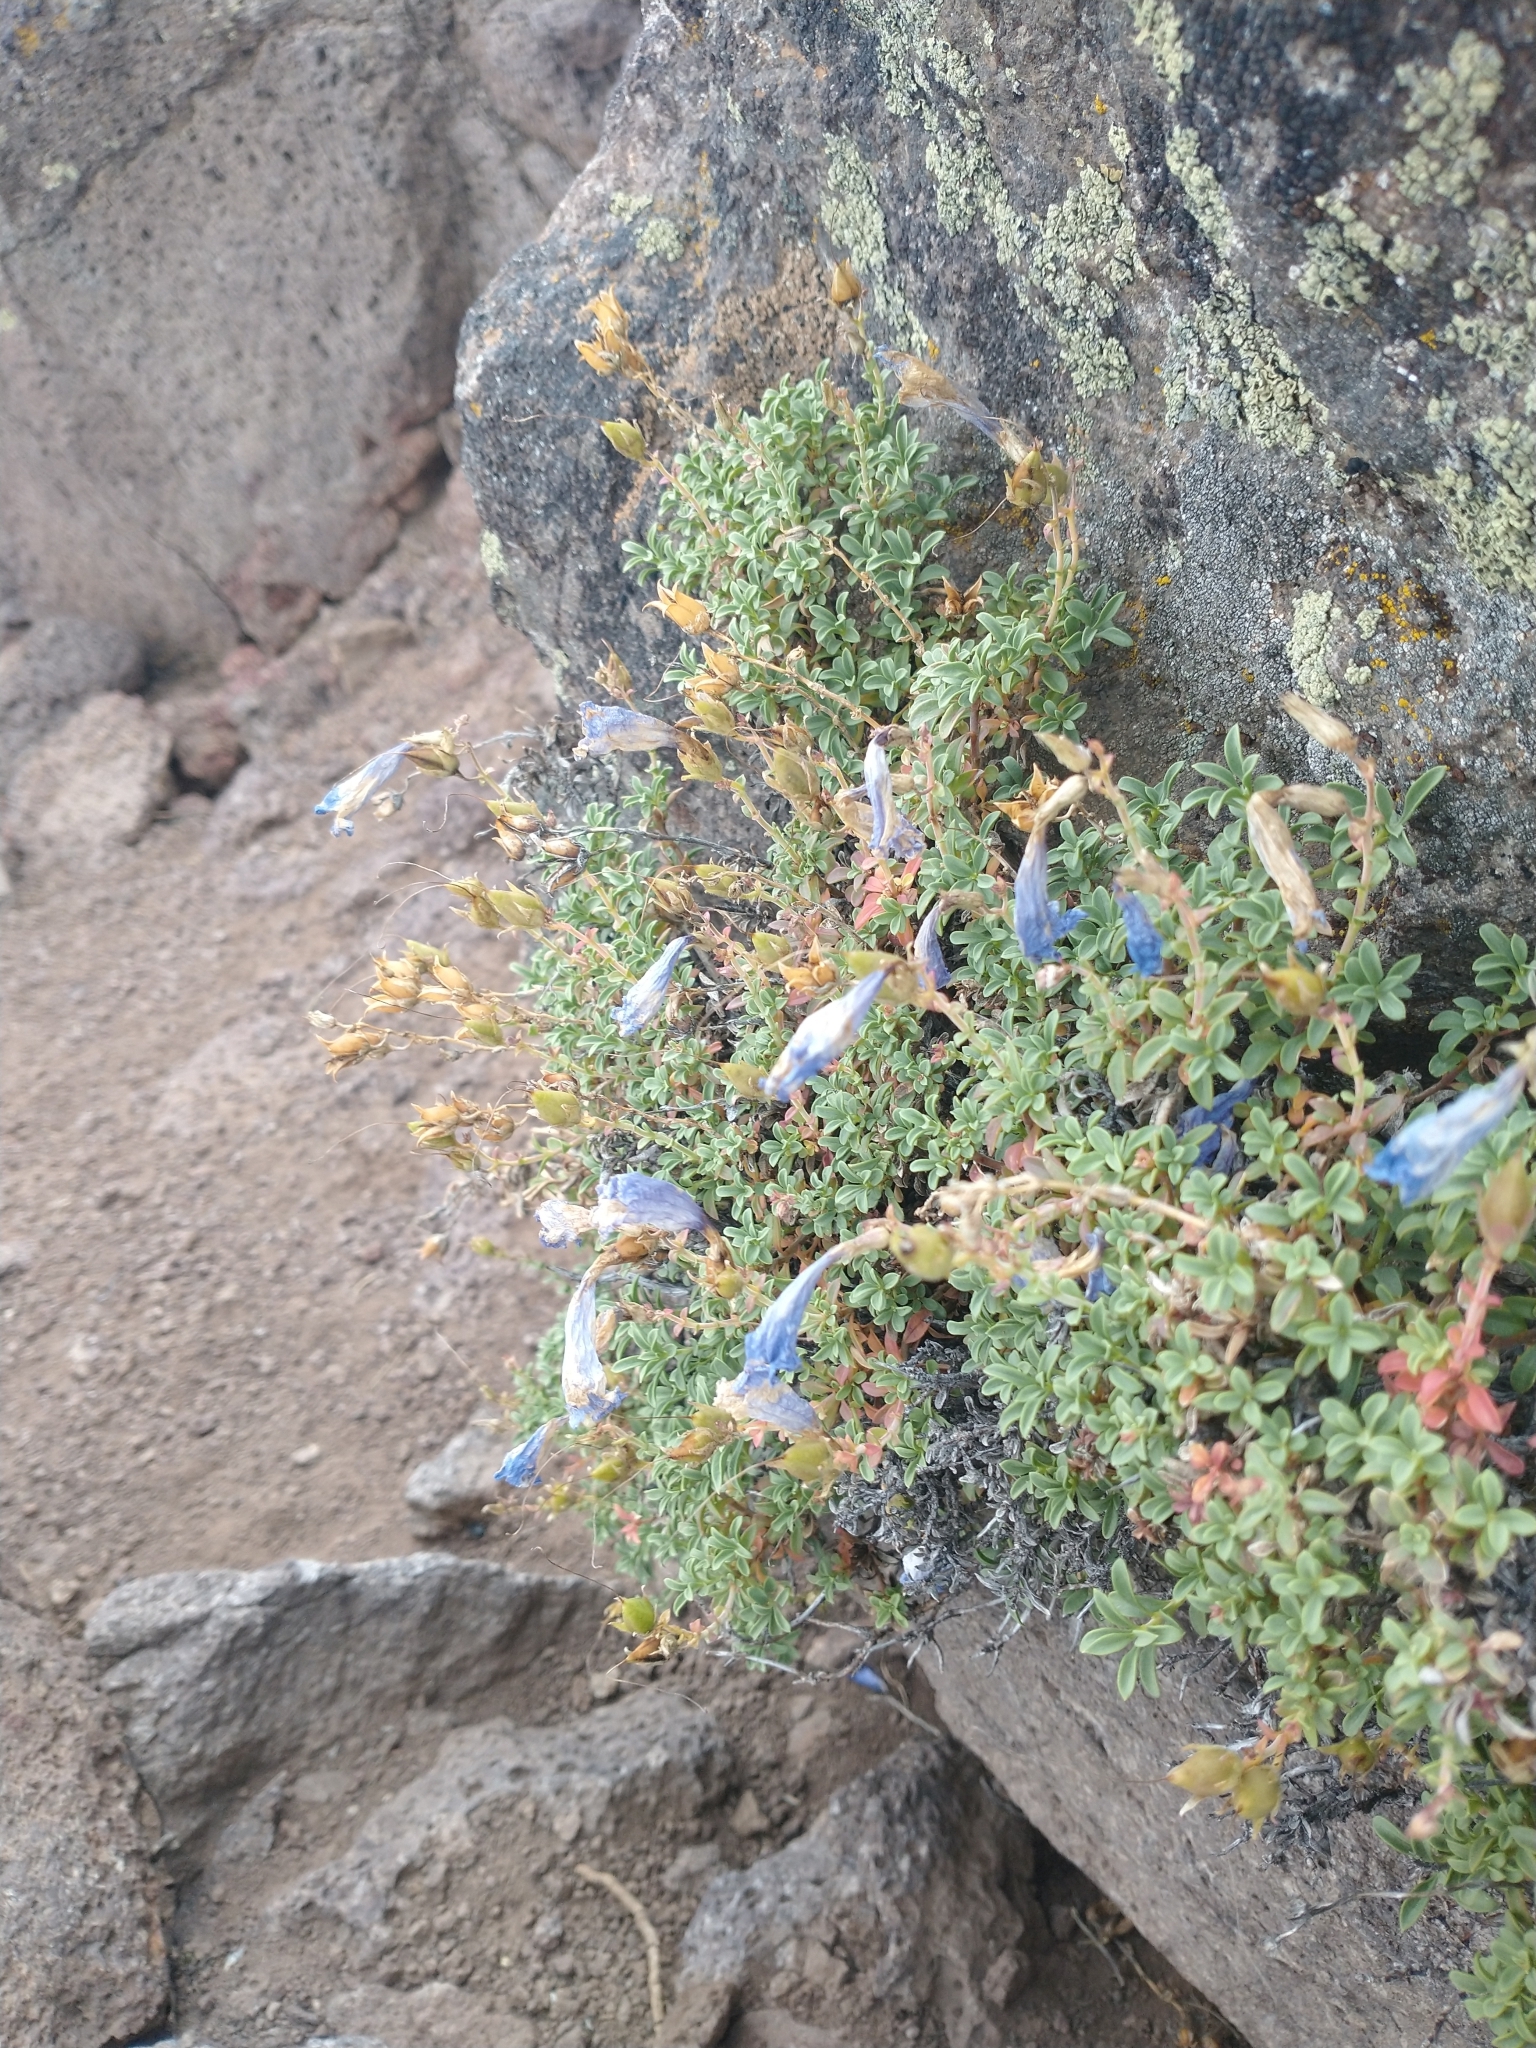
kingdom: Plantae
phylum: Tracheophyta
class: Magnoliopsida
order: Lamiales
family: Plantaginaceae
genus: Penstemon
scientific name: Penstemon davidsonii
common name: Davidson's penstemon
